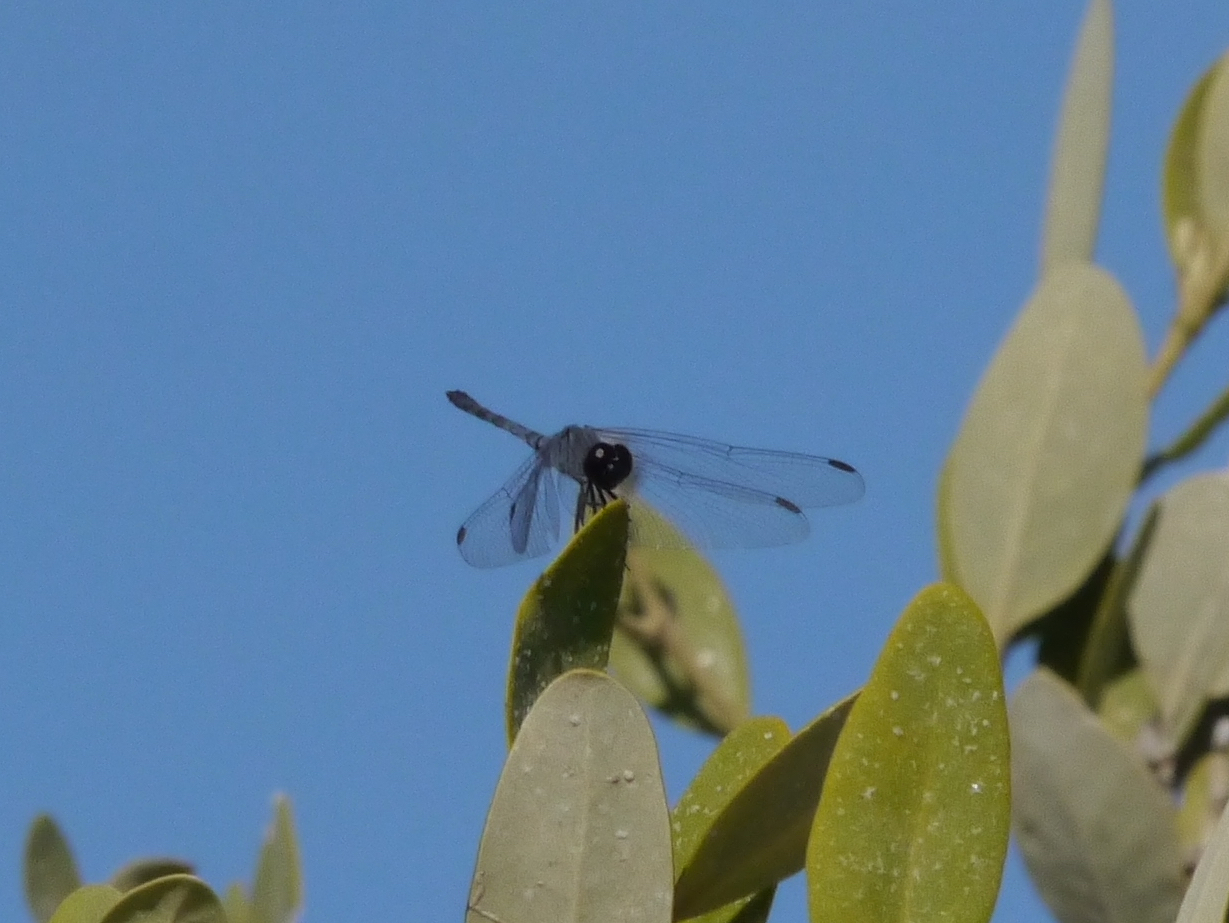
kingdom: Animalia
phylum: Arthropoda
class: Insecta
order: Odonata
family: Libellulidae
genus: Erythrodiplax
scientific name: Erythrodiplax berenice
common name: Seaside dragonlet
